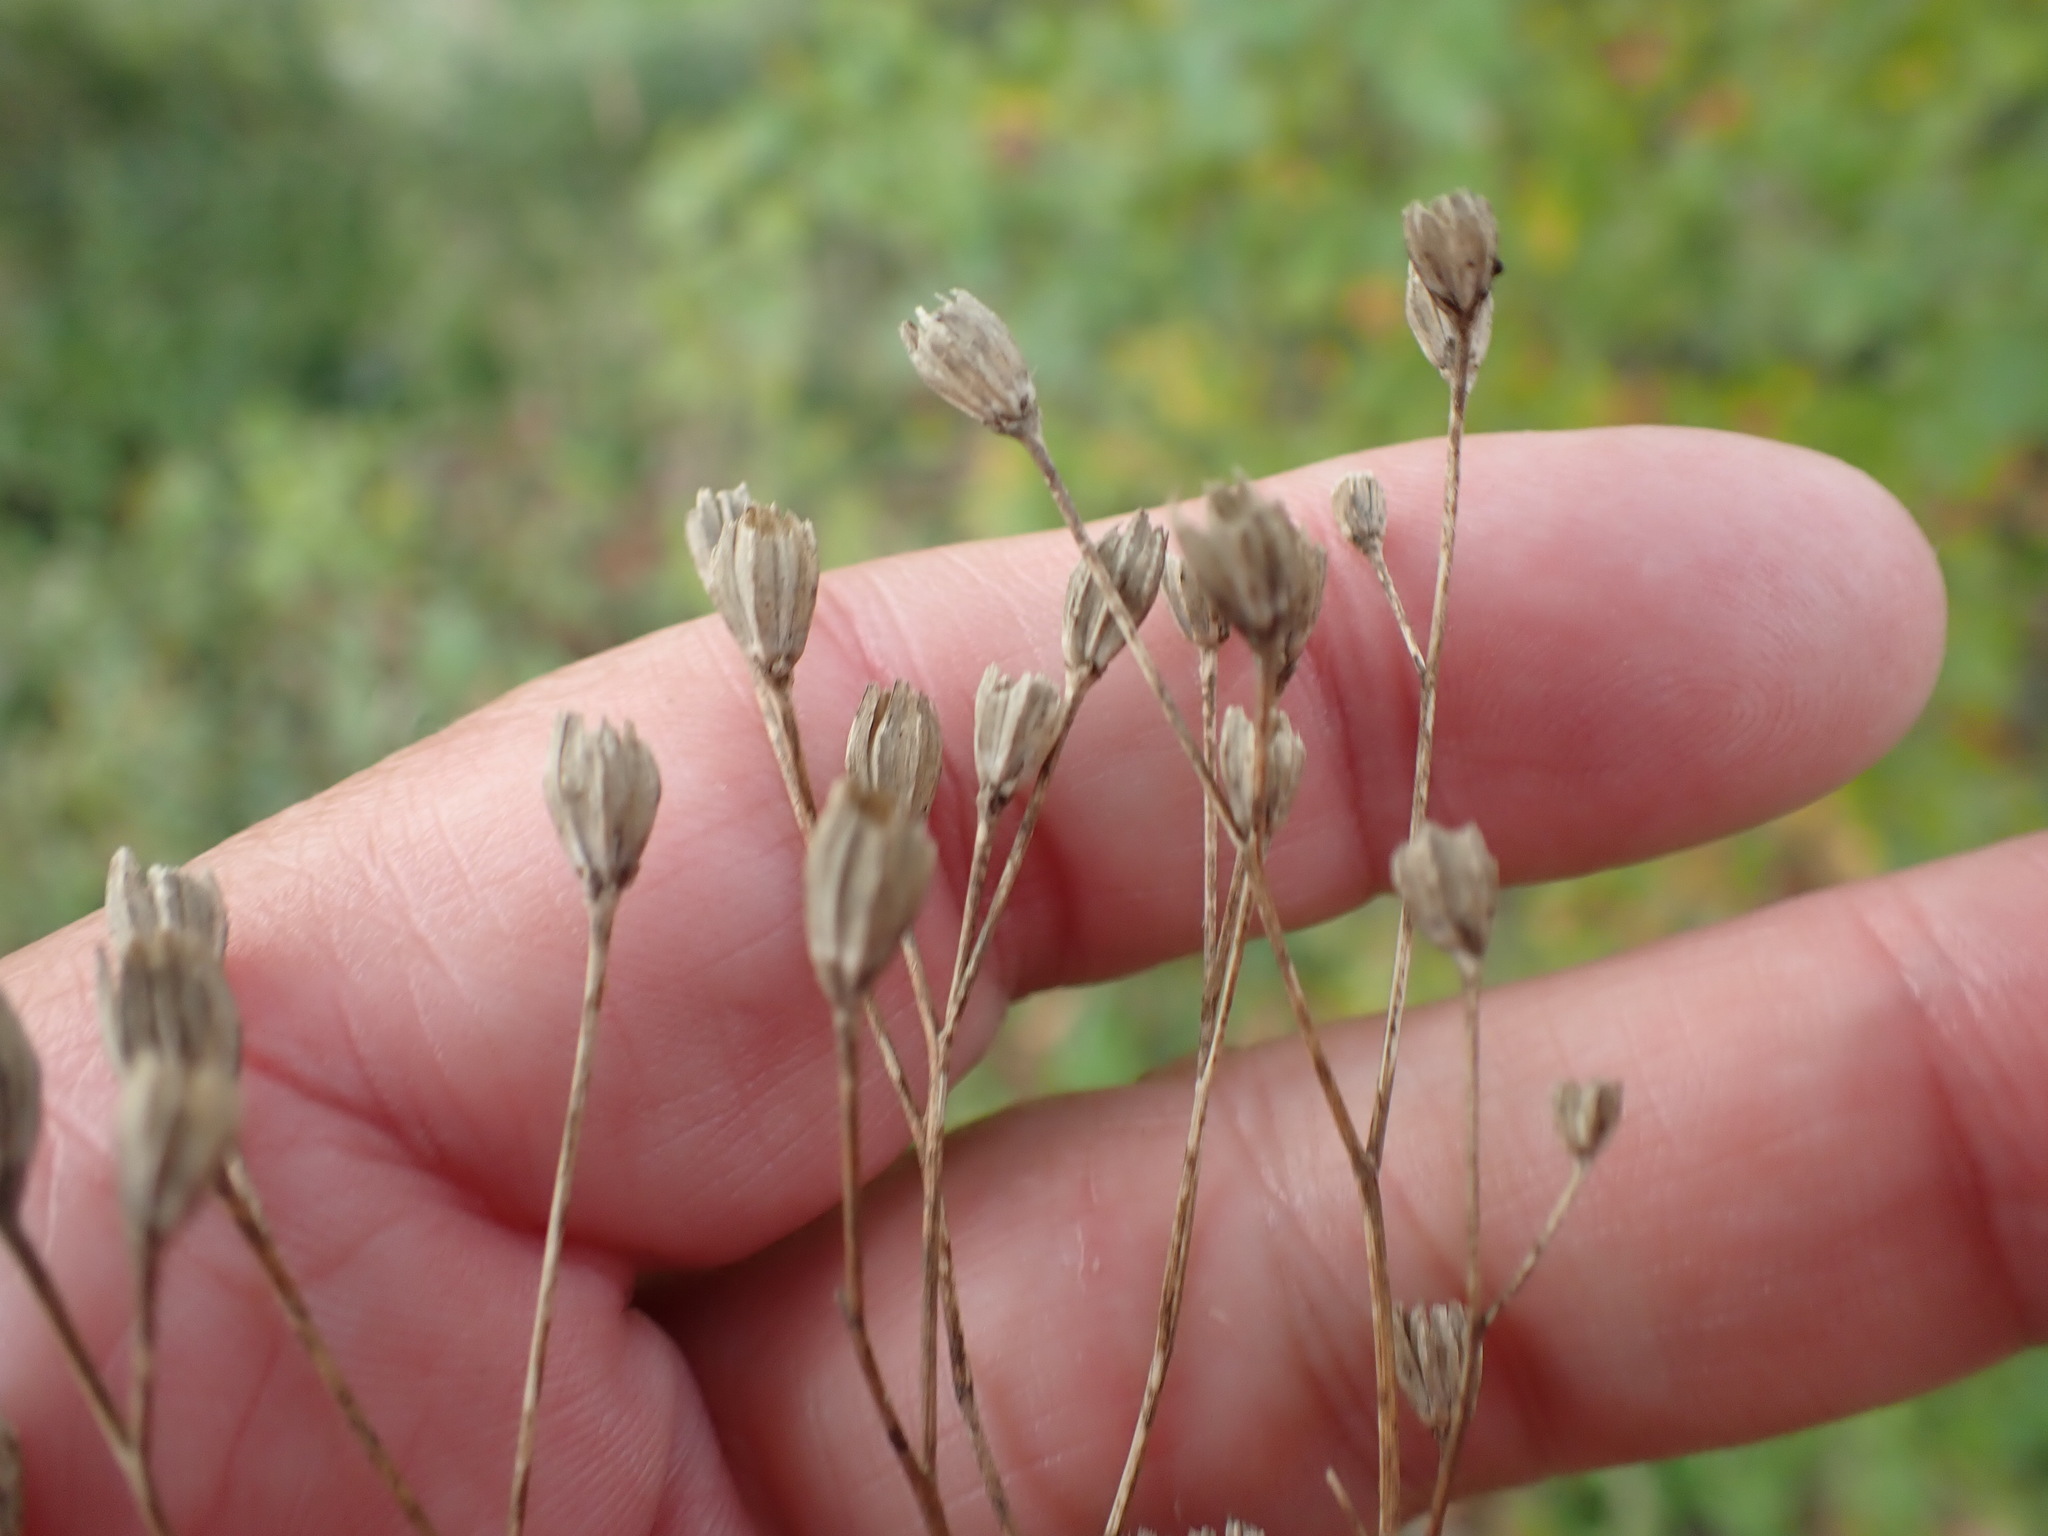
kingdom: Plantae
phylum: Tracheophyta
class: Magnoliopsida
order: Asterales
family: Asteraceae
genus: Lapsana
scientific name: Lapsana communis
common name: Nipplewort
